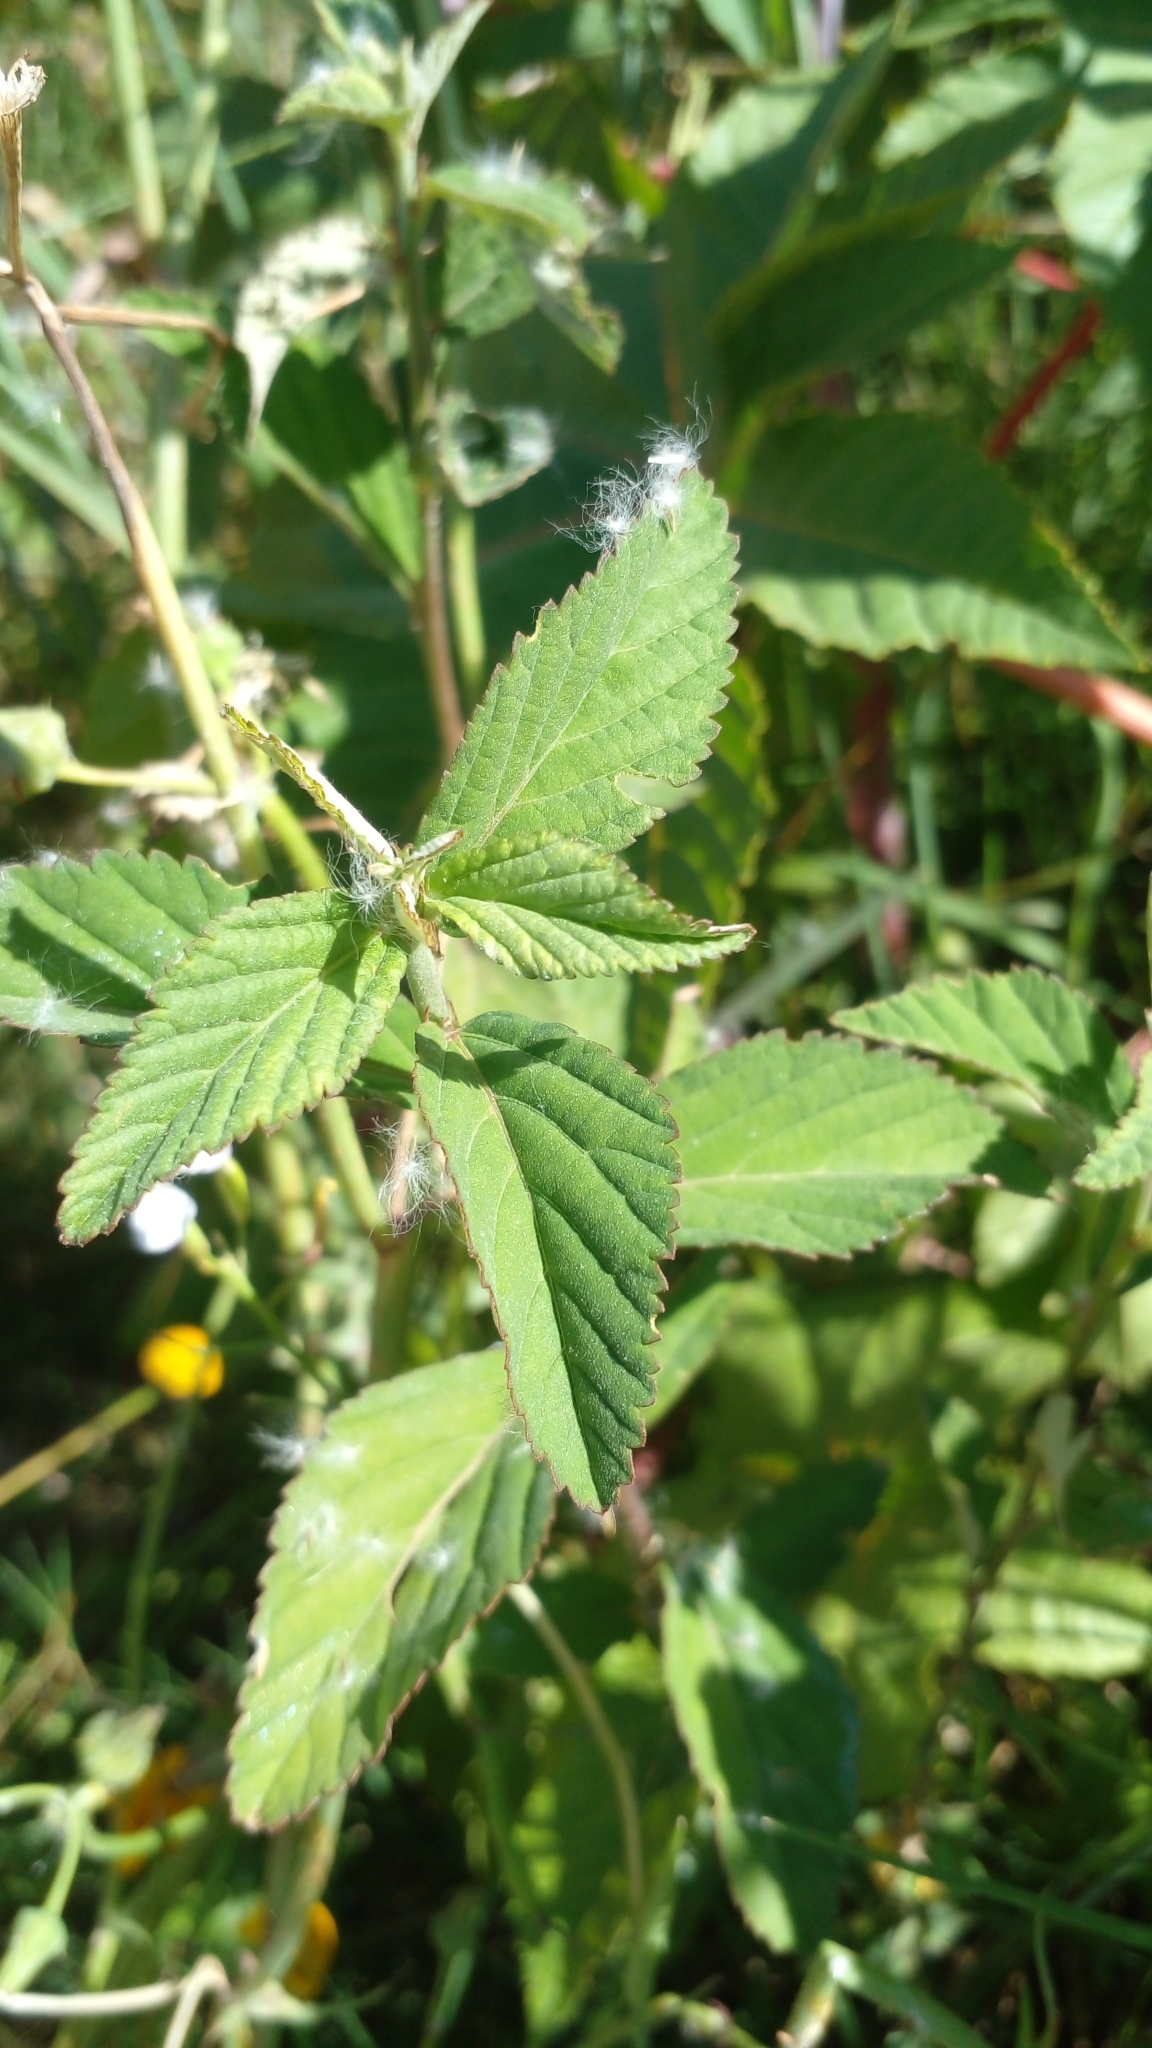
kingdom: Plantae
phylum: Tracheophyta
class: Magnoliopsida
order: Malvales
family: Malvaceae
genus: Sida
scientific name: Sida rhombifolia
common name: Queensland-hemp
